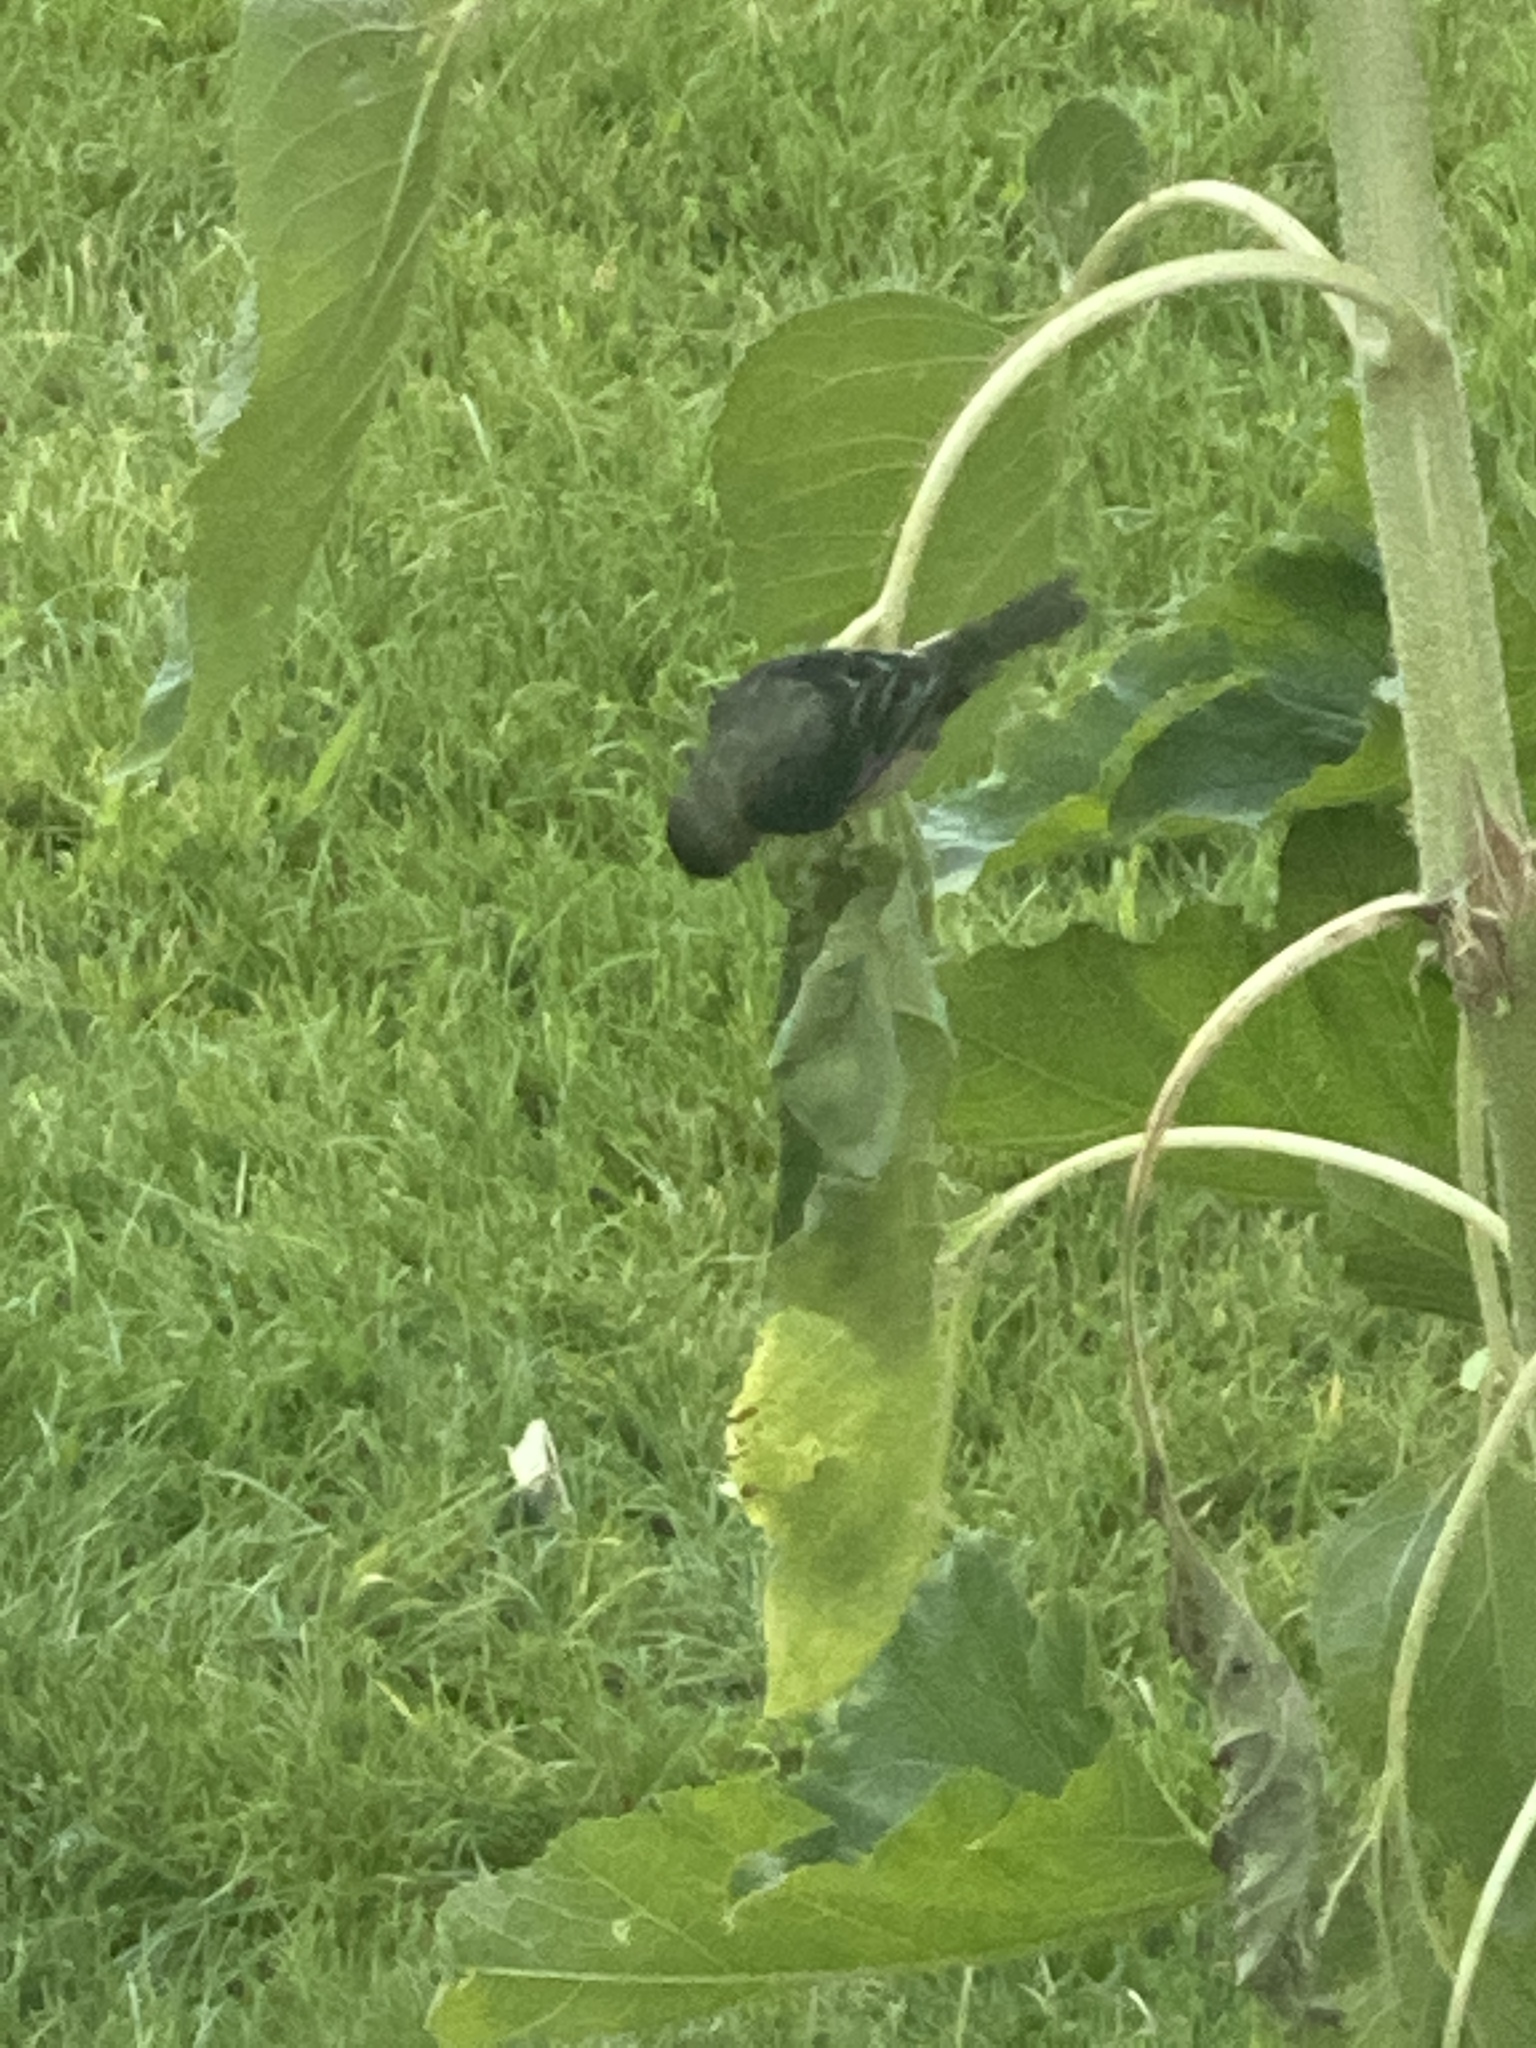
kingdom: Animalia
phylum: Chordata
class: Aves
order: Passeriformes
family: Fringillidae
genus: Spinus
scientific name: Spinus psaltria
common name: Lesser goldfinch
